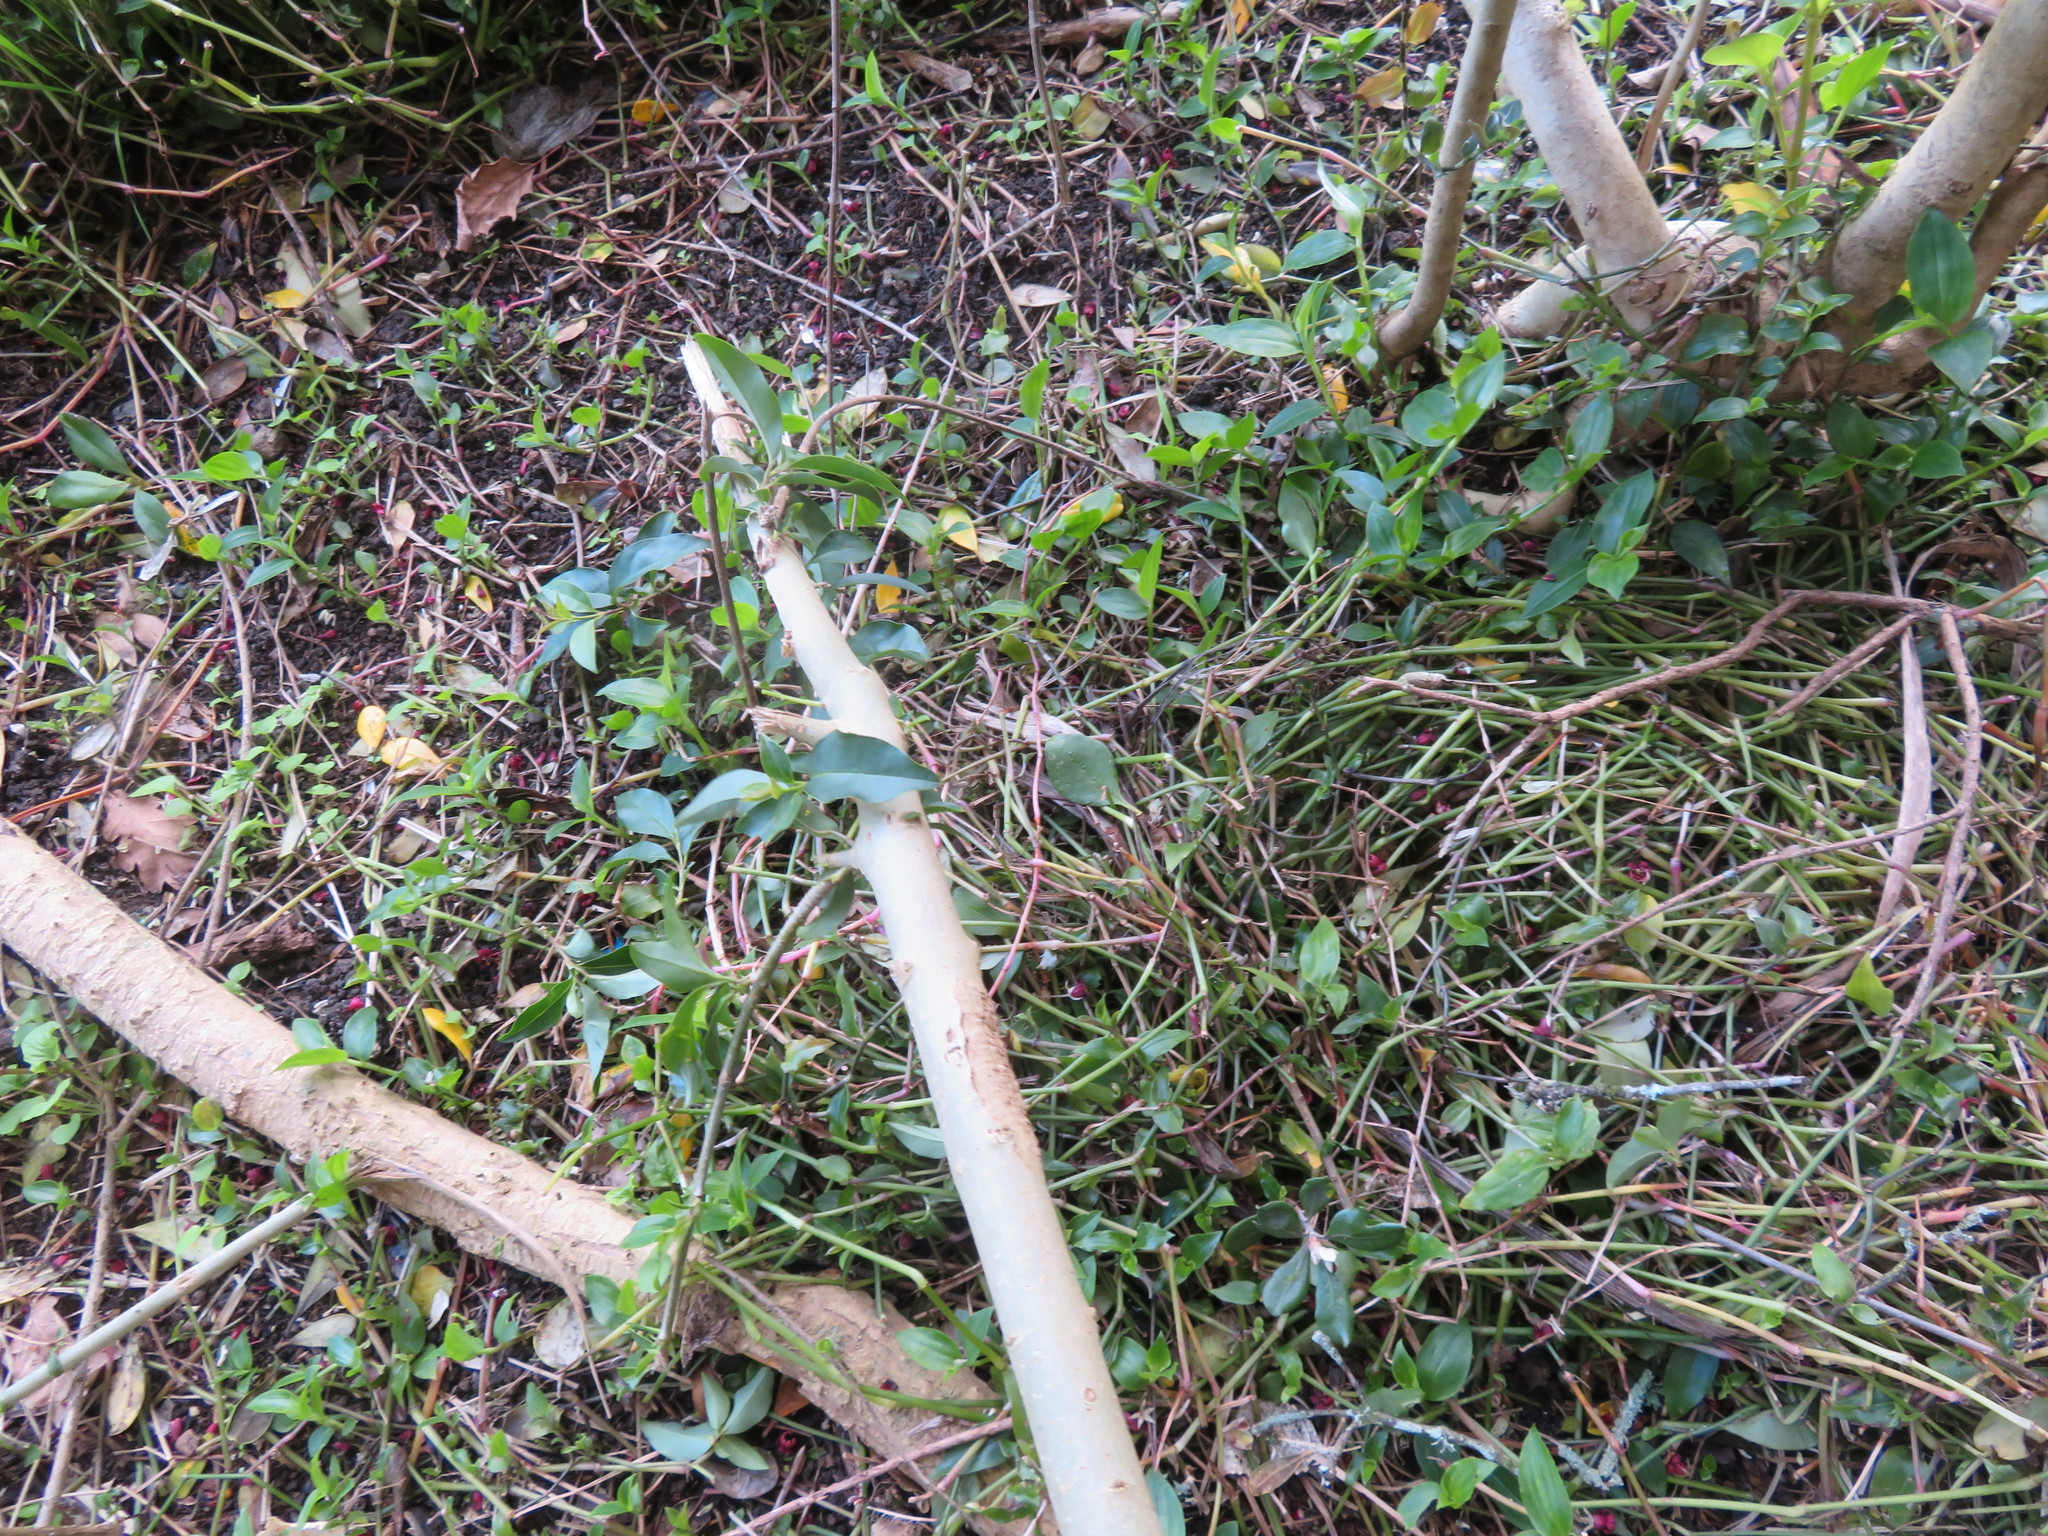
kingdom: Plantae
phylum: Tracheophyta
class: Liliopsida
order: Commelinales
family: Commelinaceae
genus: Tradescantia
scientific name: Tradescantia fluminensis
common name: Wandering-jew
